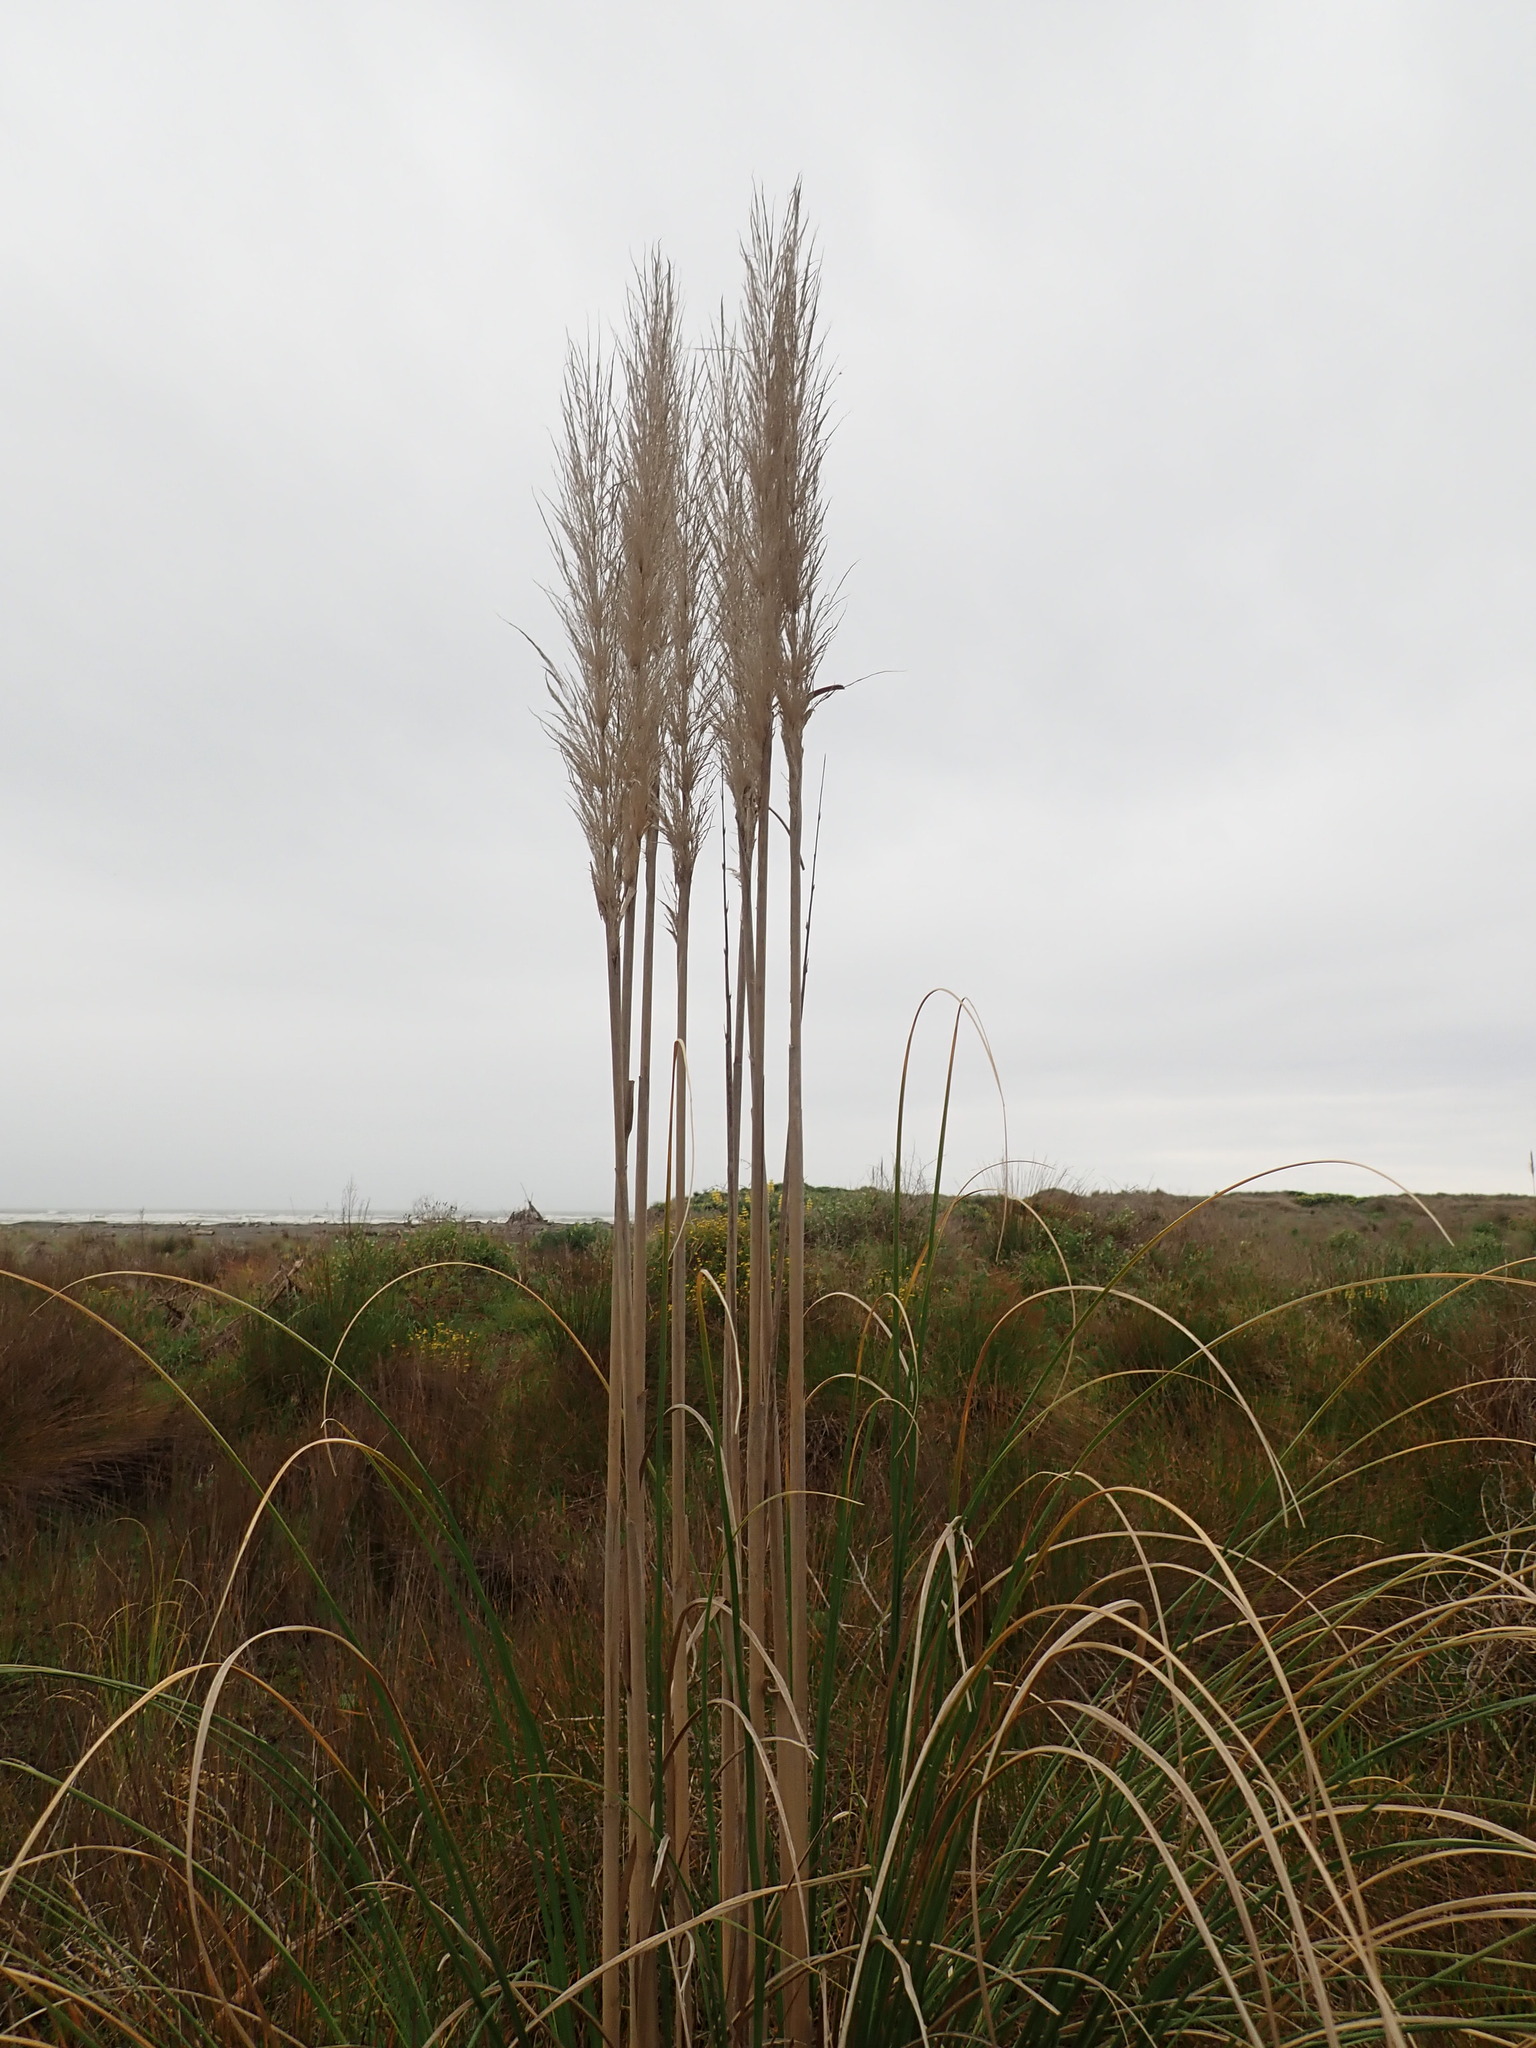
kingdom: Plantae
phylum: Tracheophyta
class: Liliopsida
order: Poales
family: Poaceae
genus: Cortaderia
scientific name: Cortaderia selloana
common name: Uruguayan pampas grass
